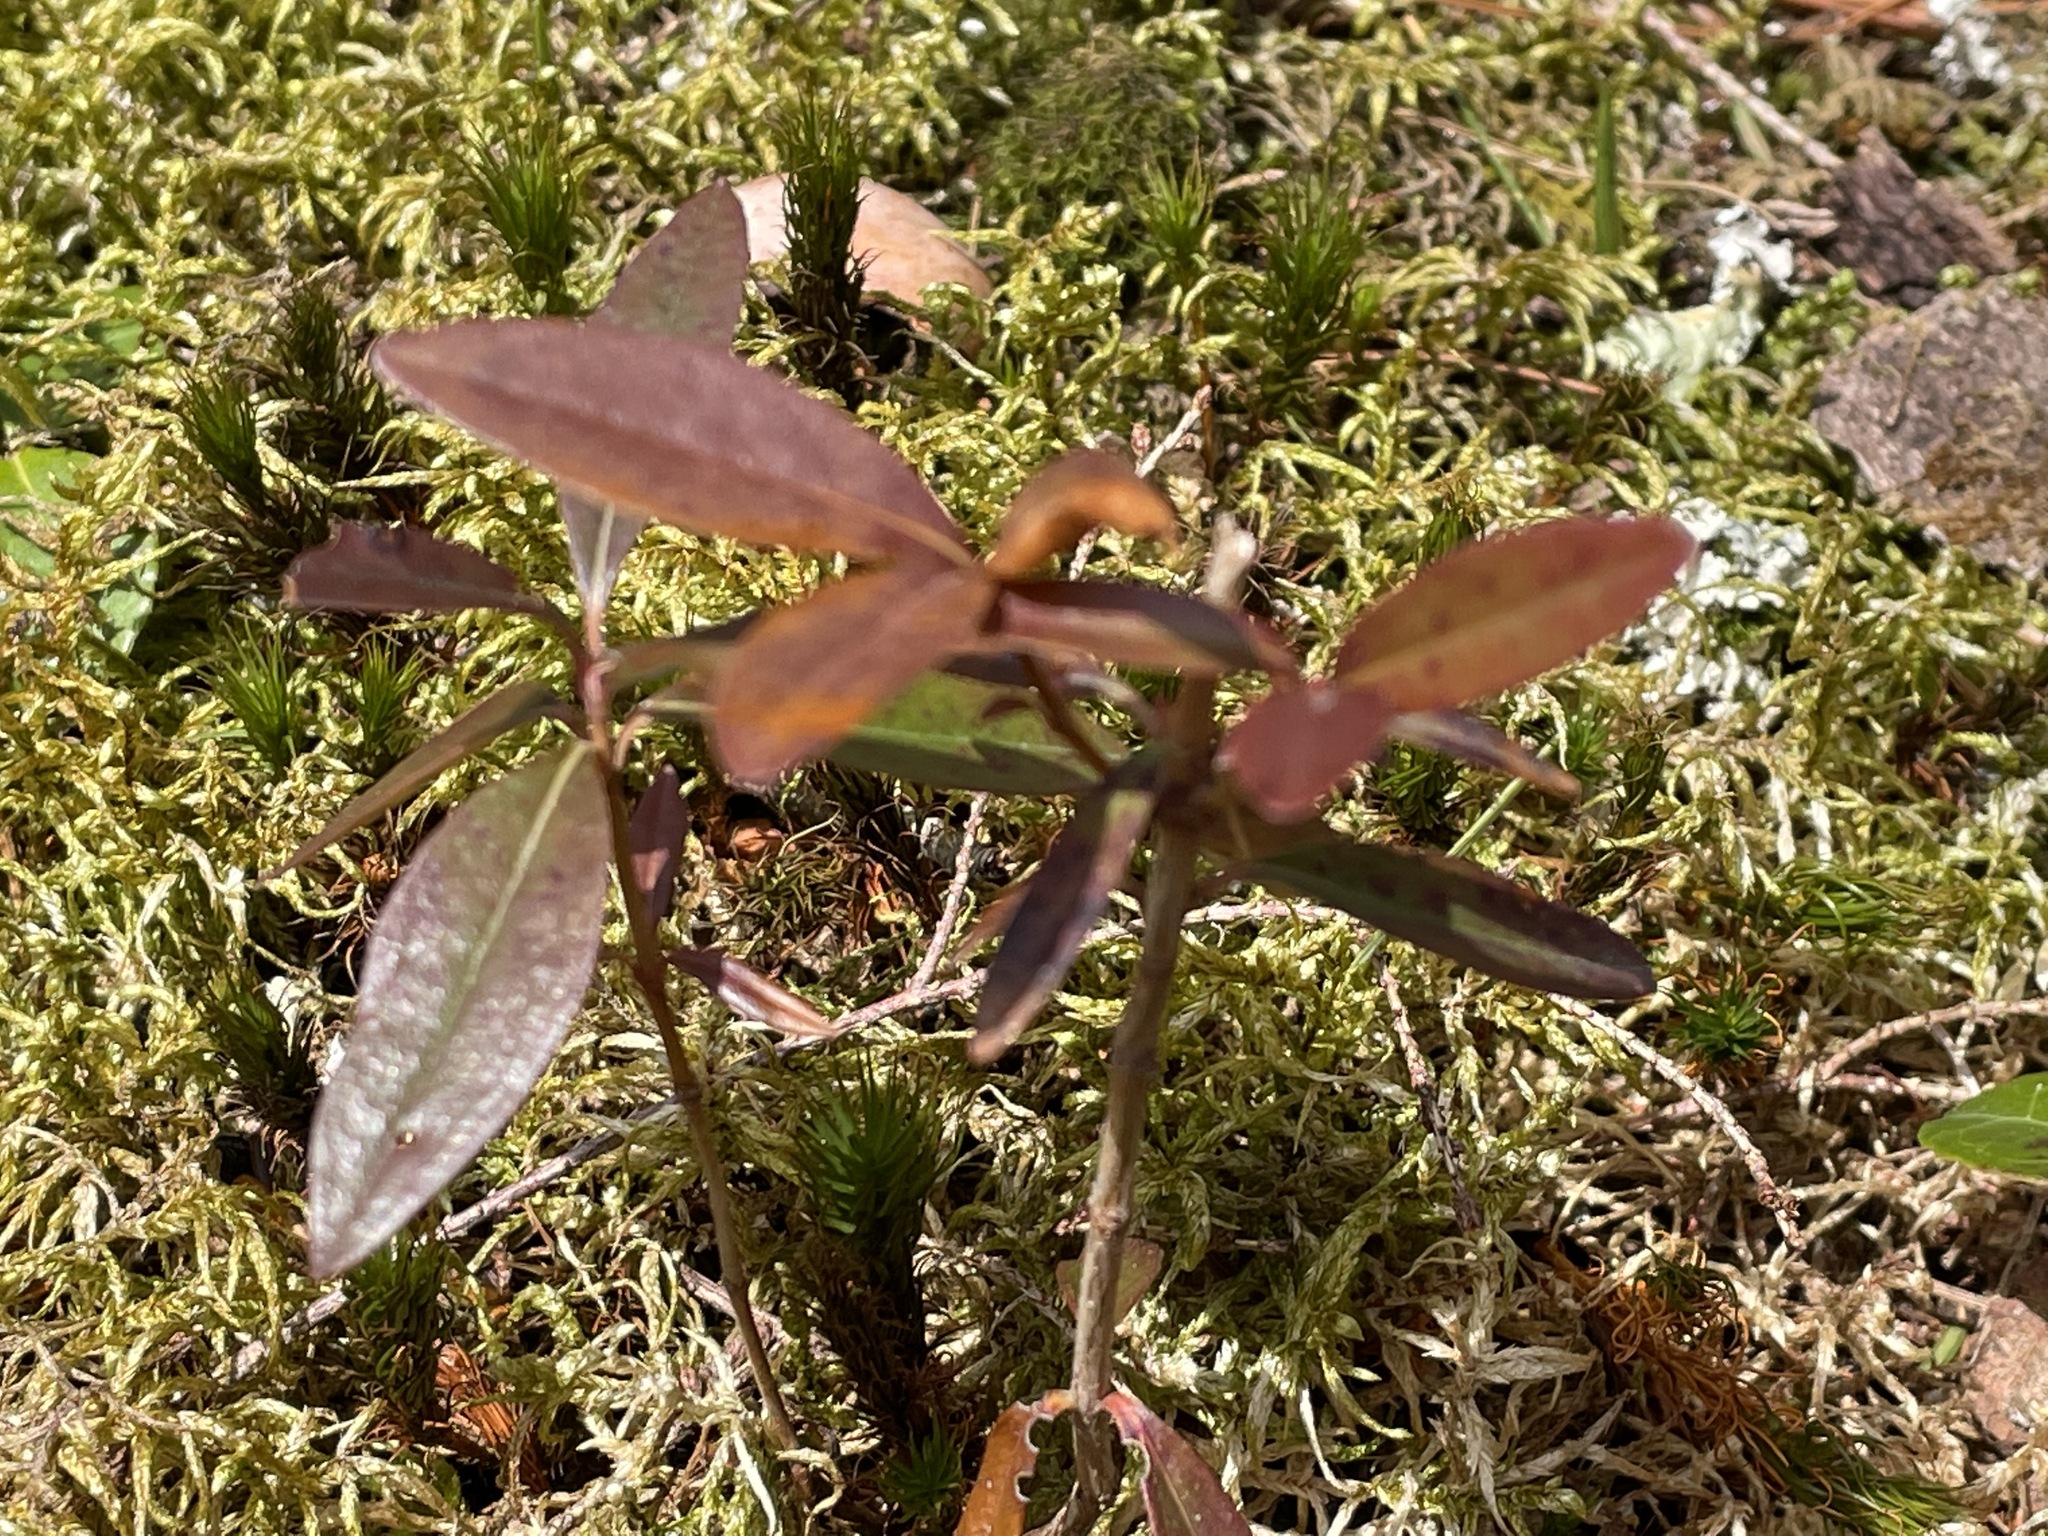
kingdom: Plantae
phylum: Tracheophyta
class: Magnoliopsida
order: Ericales
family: Ericaceae
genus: Kalmia
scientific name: Kalmia angustifolia
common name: Sheep-laurel
